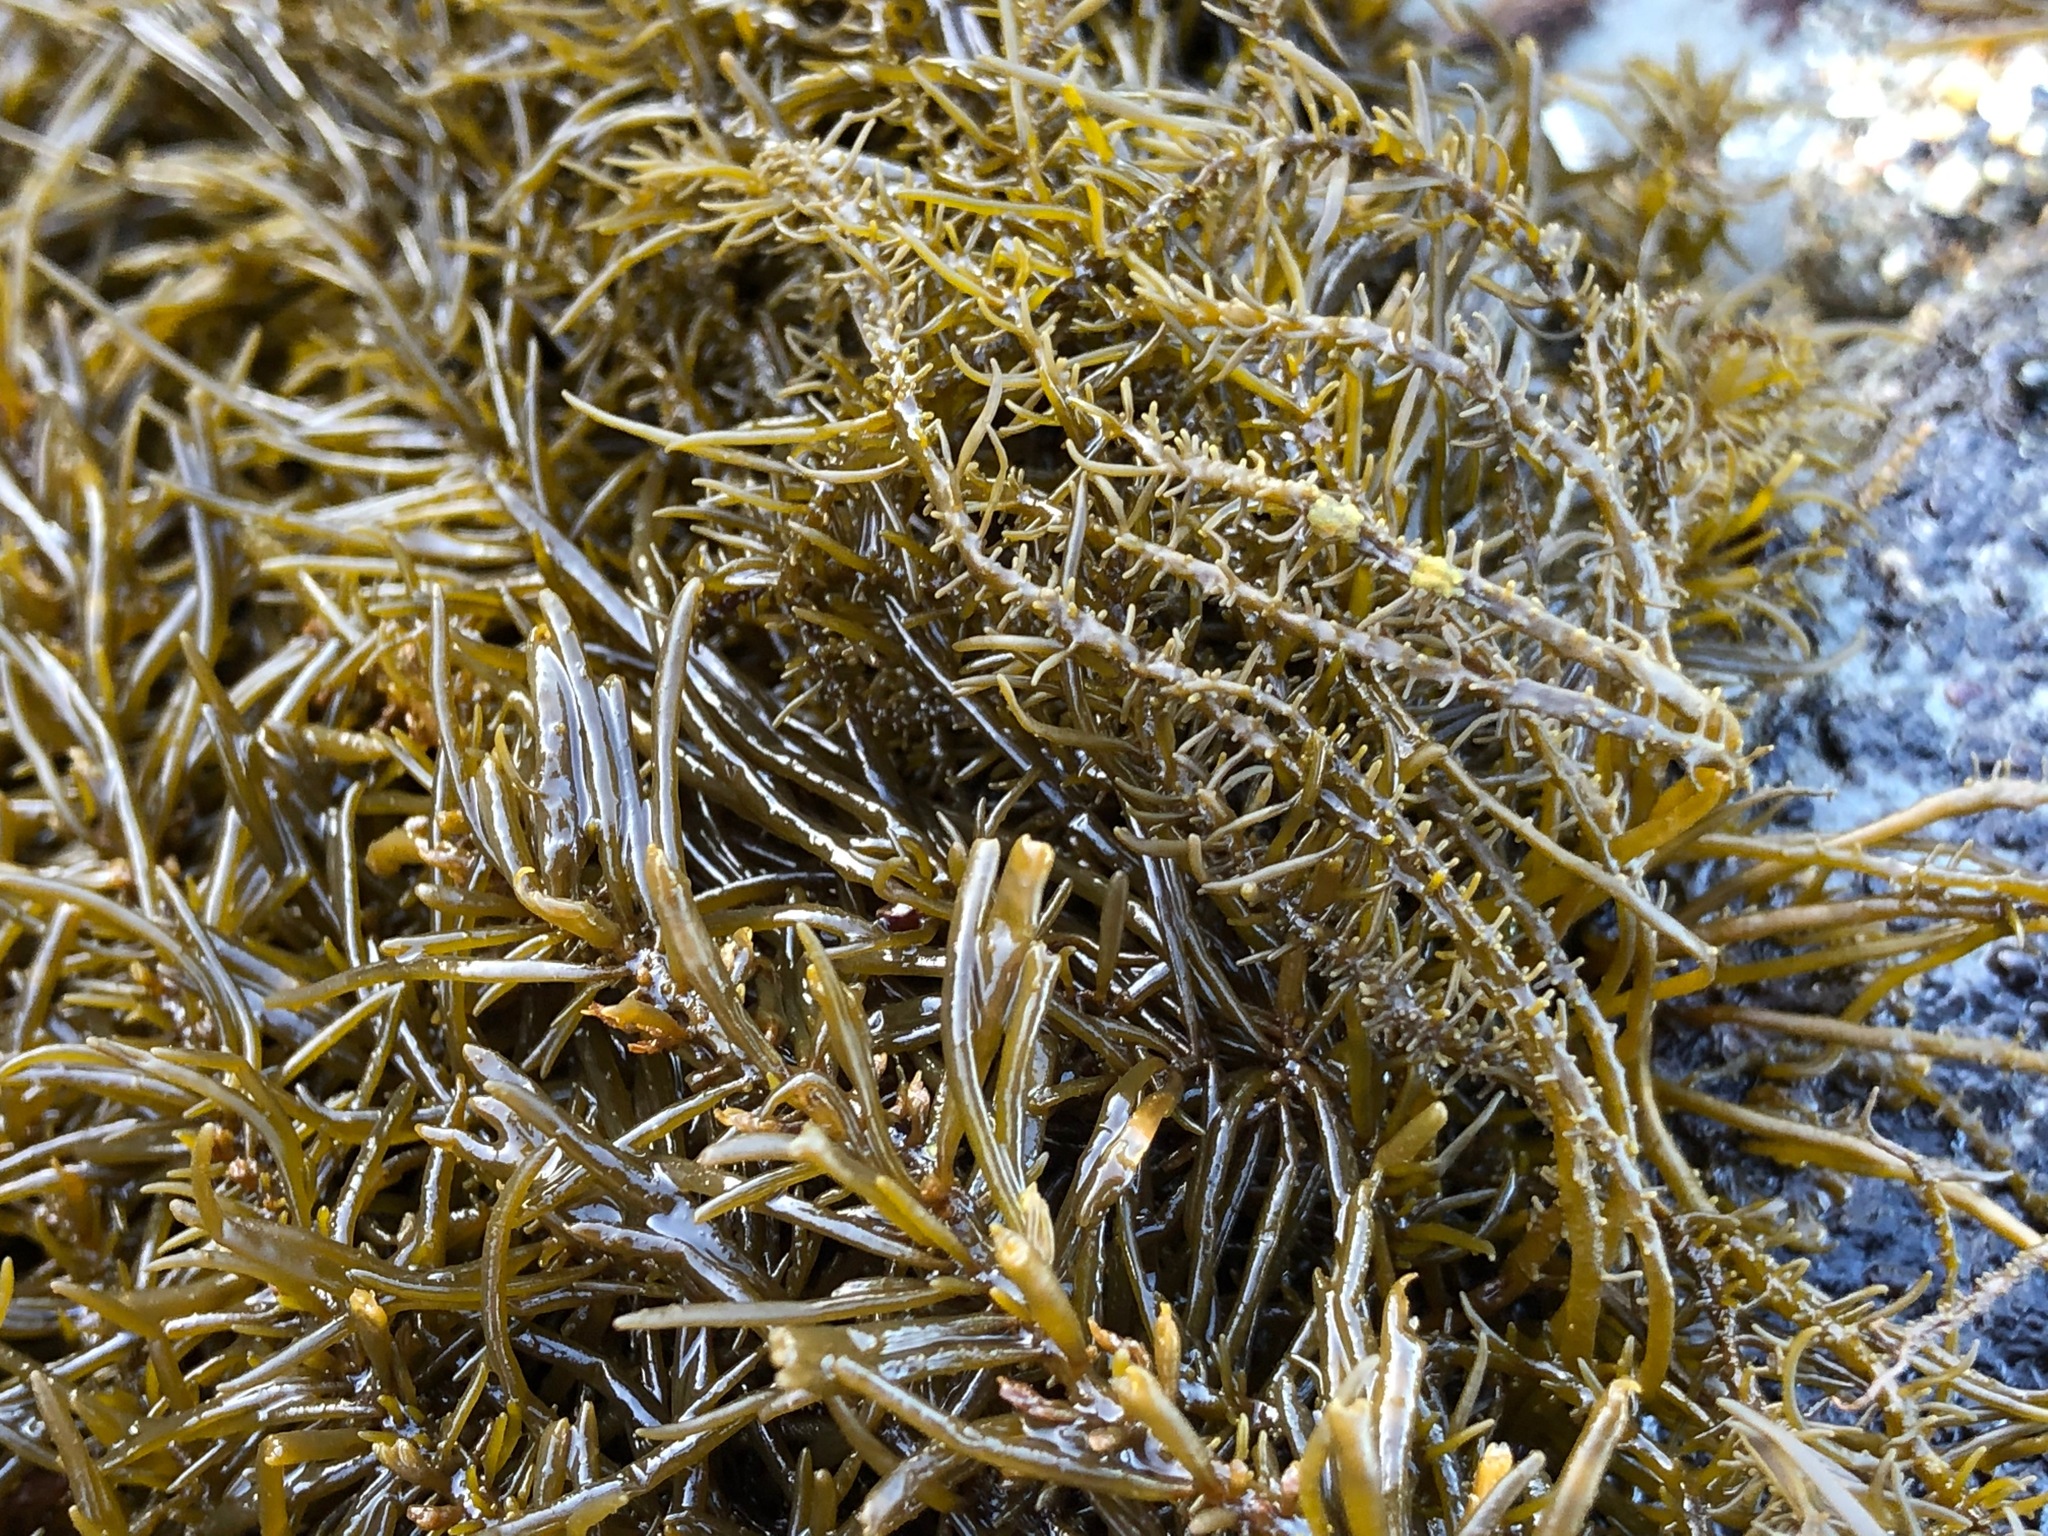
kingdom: Chromista
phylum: Ochrophyta
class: Phaeophyceae
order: Scytosiphonales
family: Scytosiphonaceae
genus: Analipus
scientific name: Analipus japonicus
